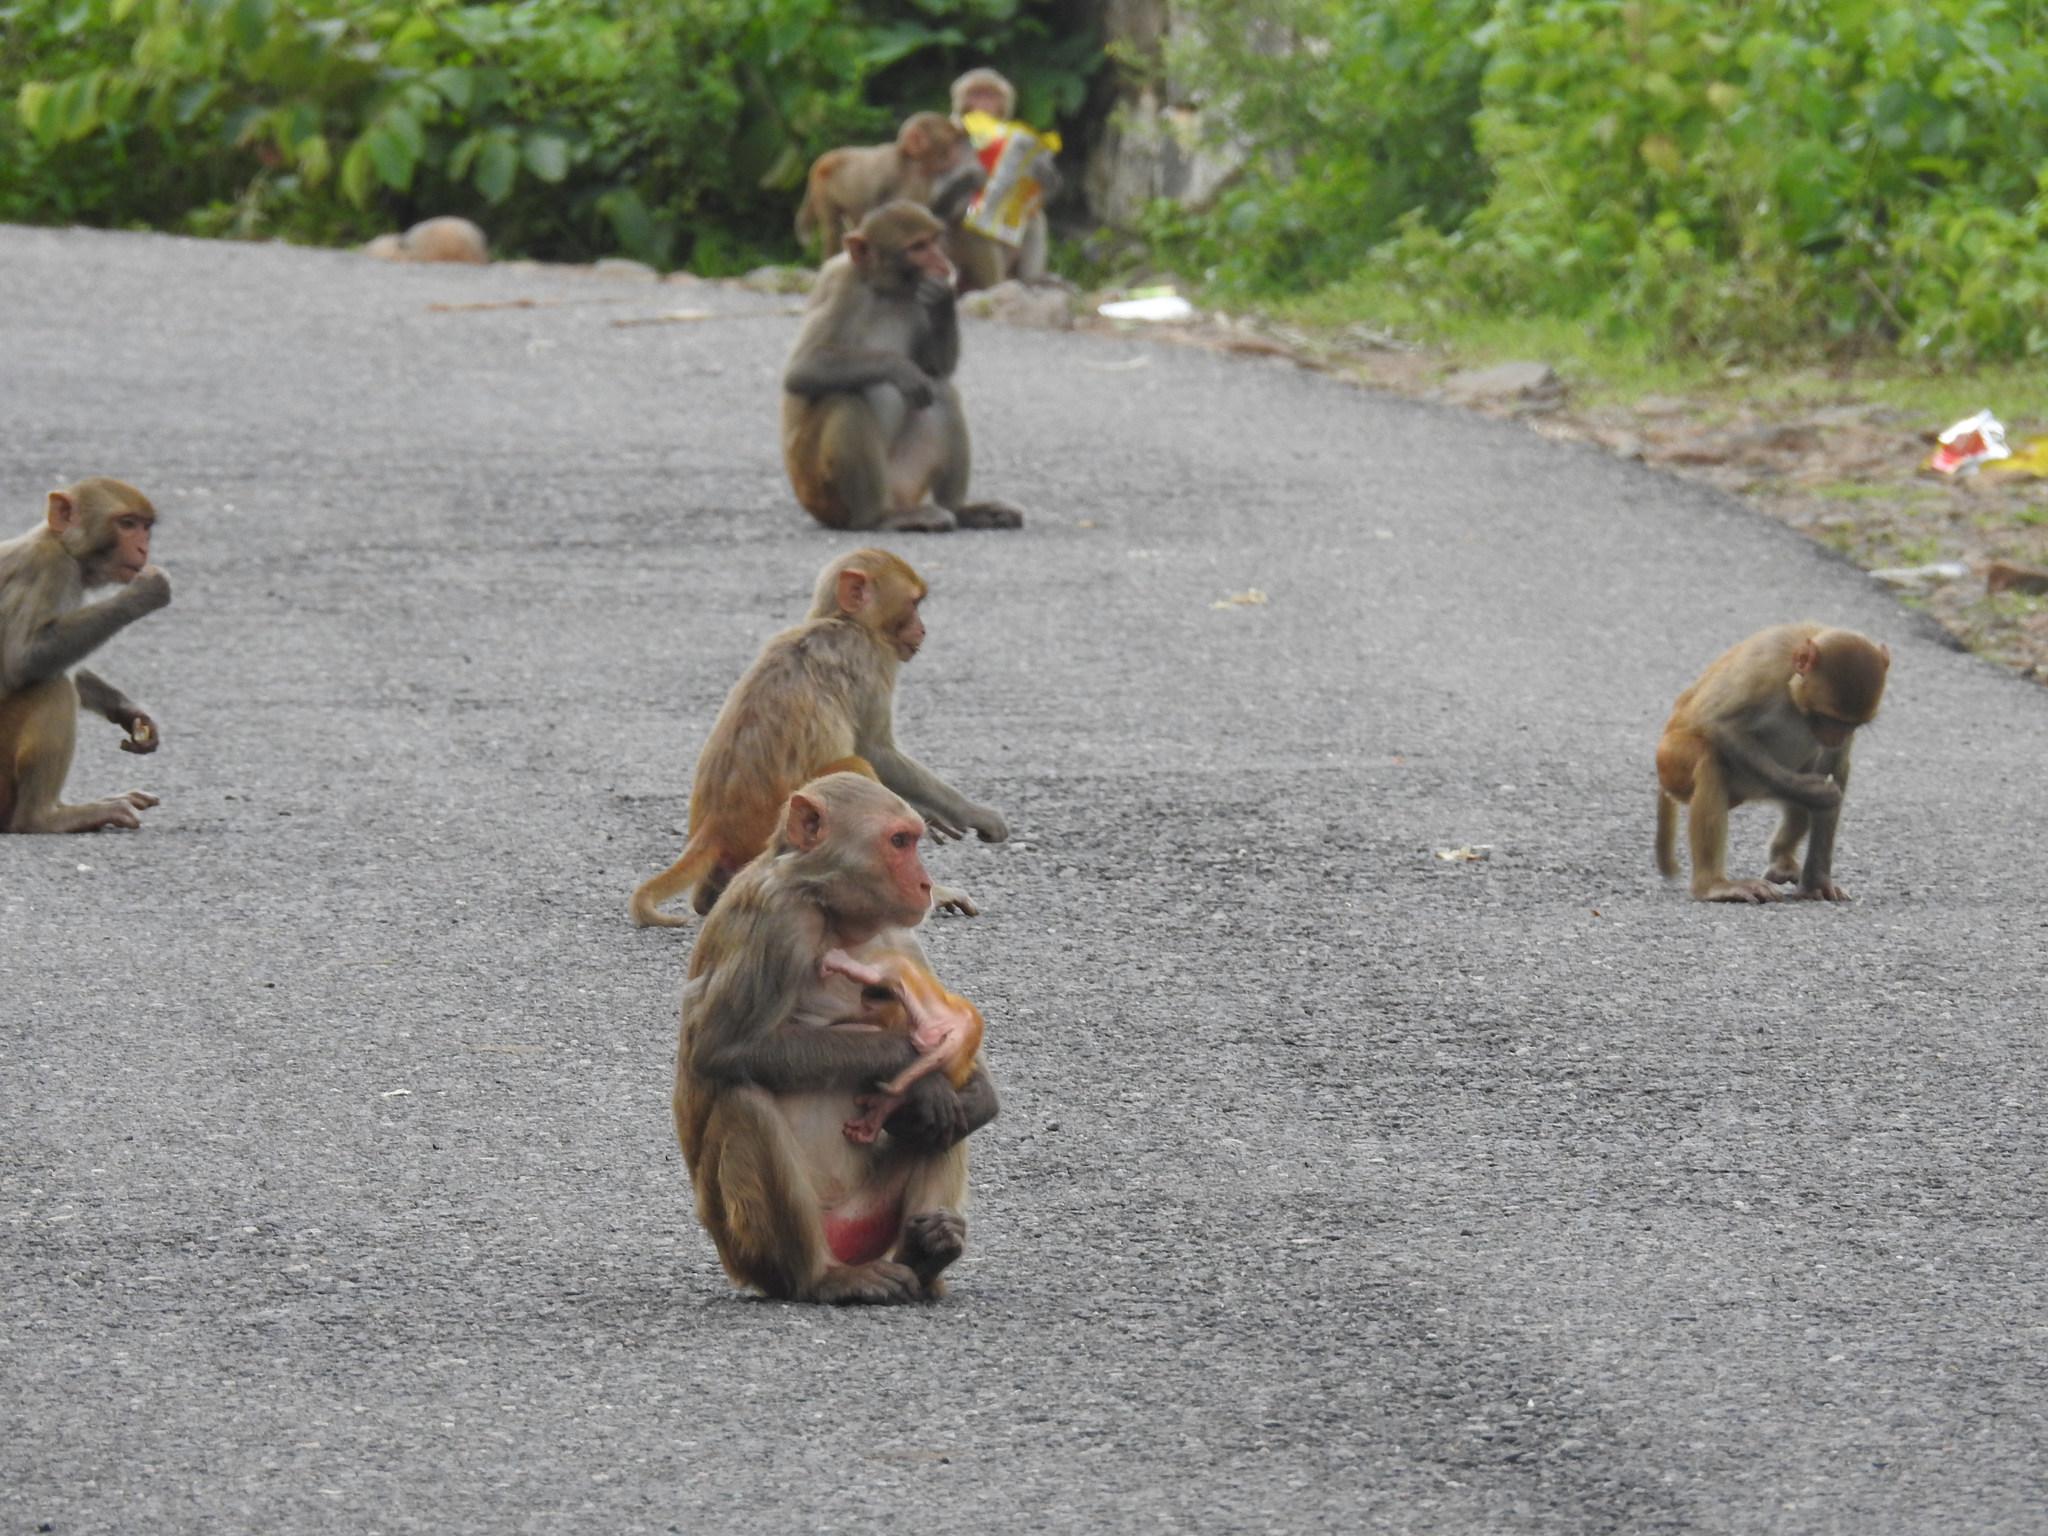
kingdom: Animalia
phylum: Chordata
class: Mammalia
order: Primates
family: Cercopithecidae
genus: Macaca
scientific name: Macaca mulatta
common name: Rhesus monkey
